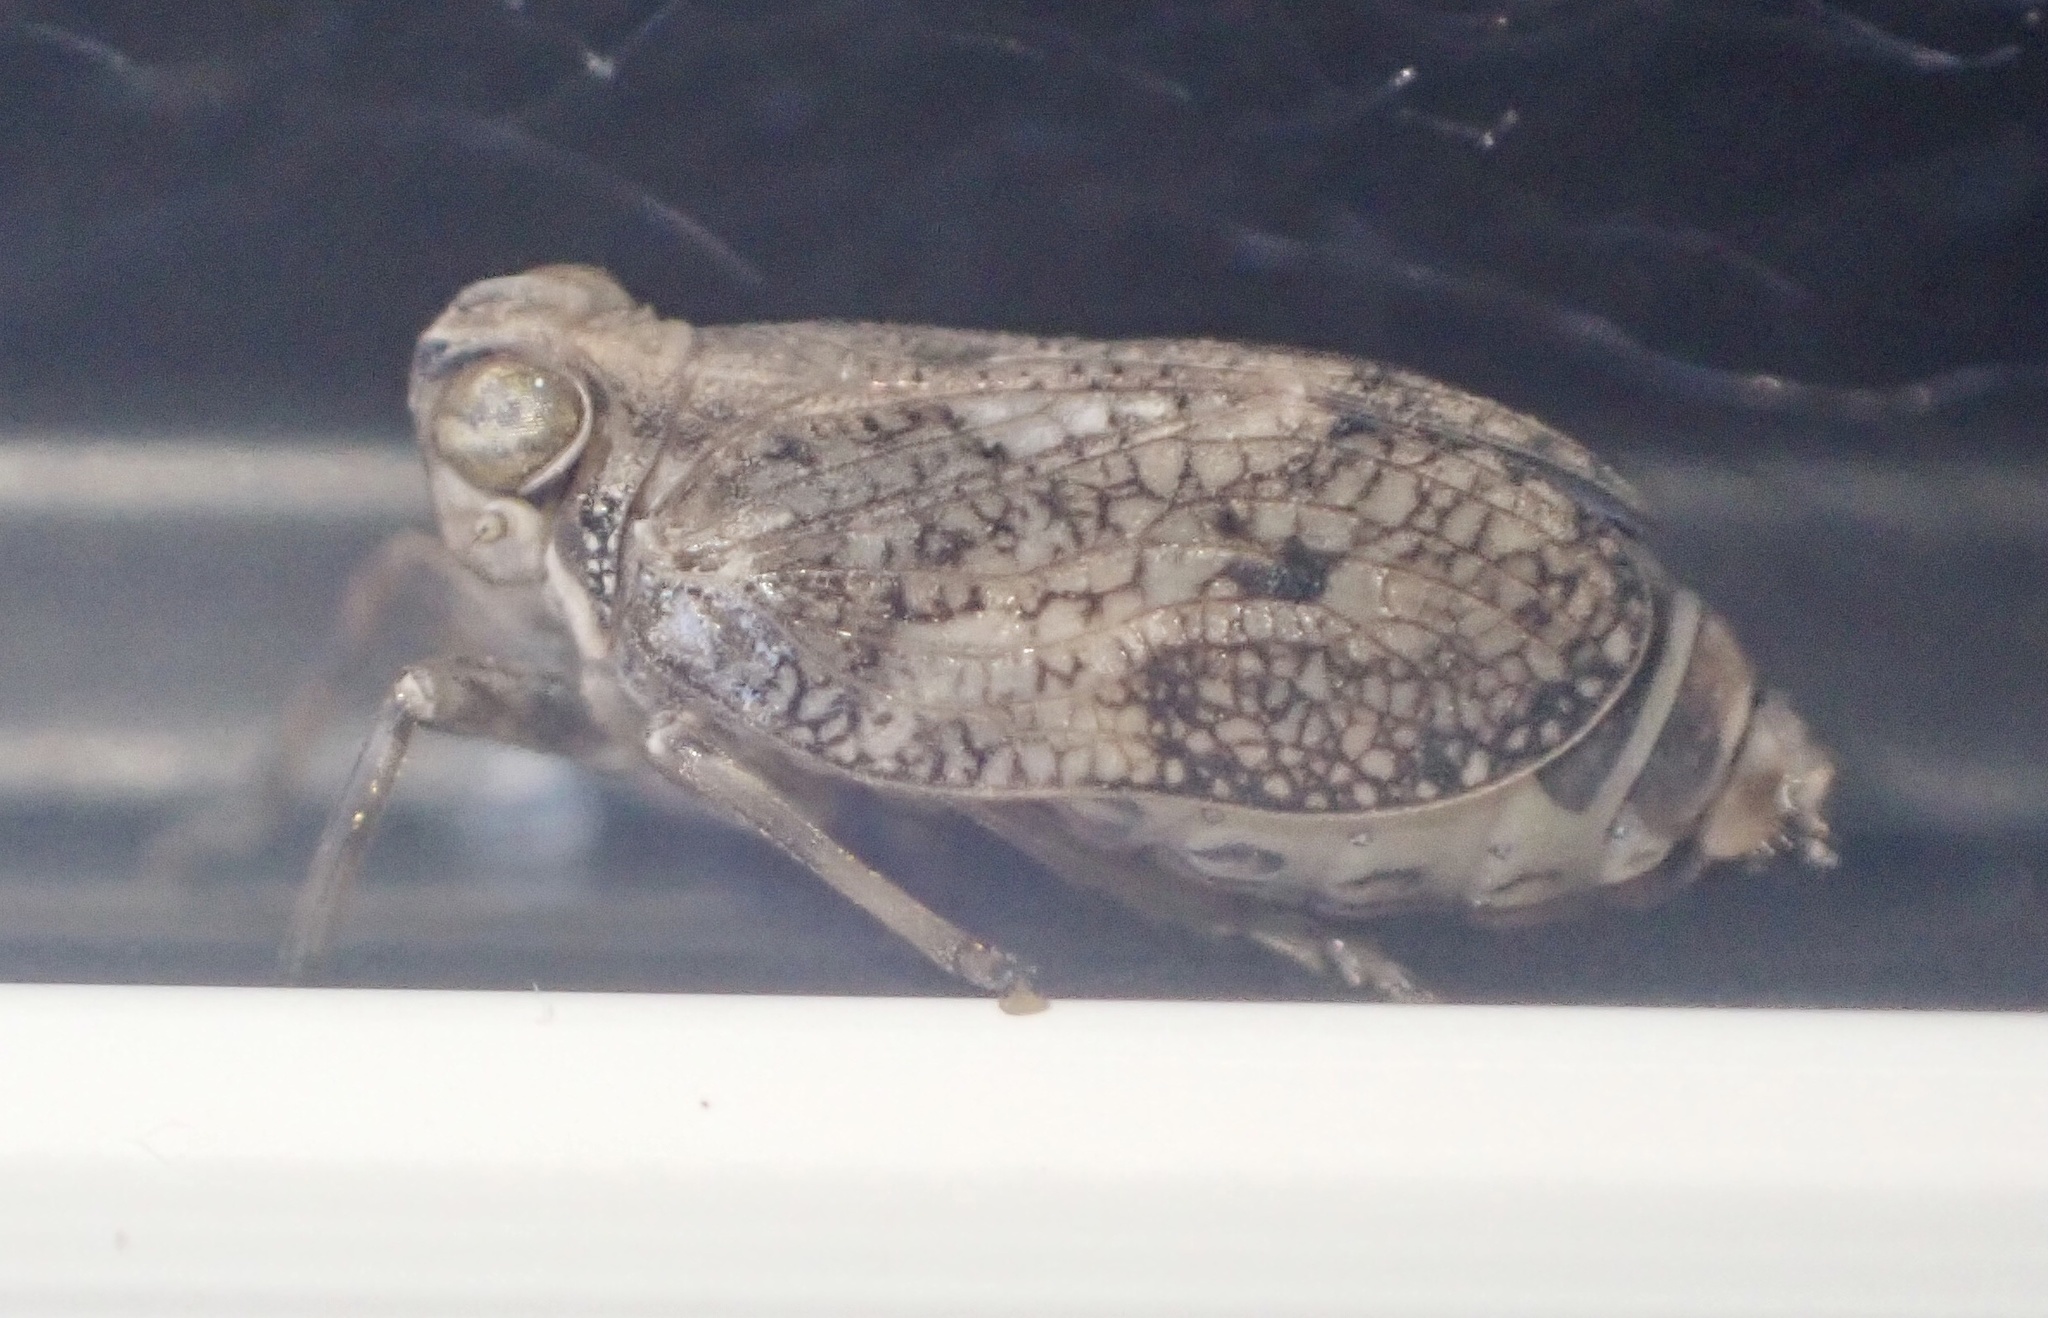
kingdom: Animalia
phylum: Arthropoda
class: Insecta
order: Hemiptera
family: Issidae
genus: Issus
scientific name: Issus coleoptratus
